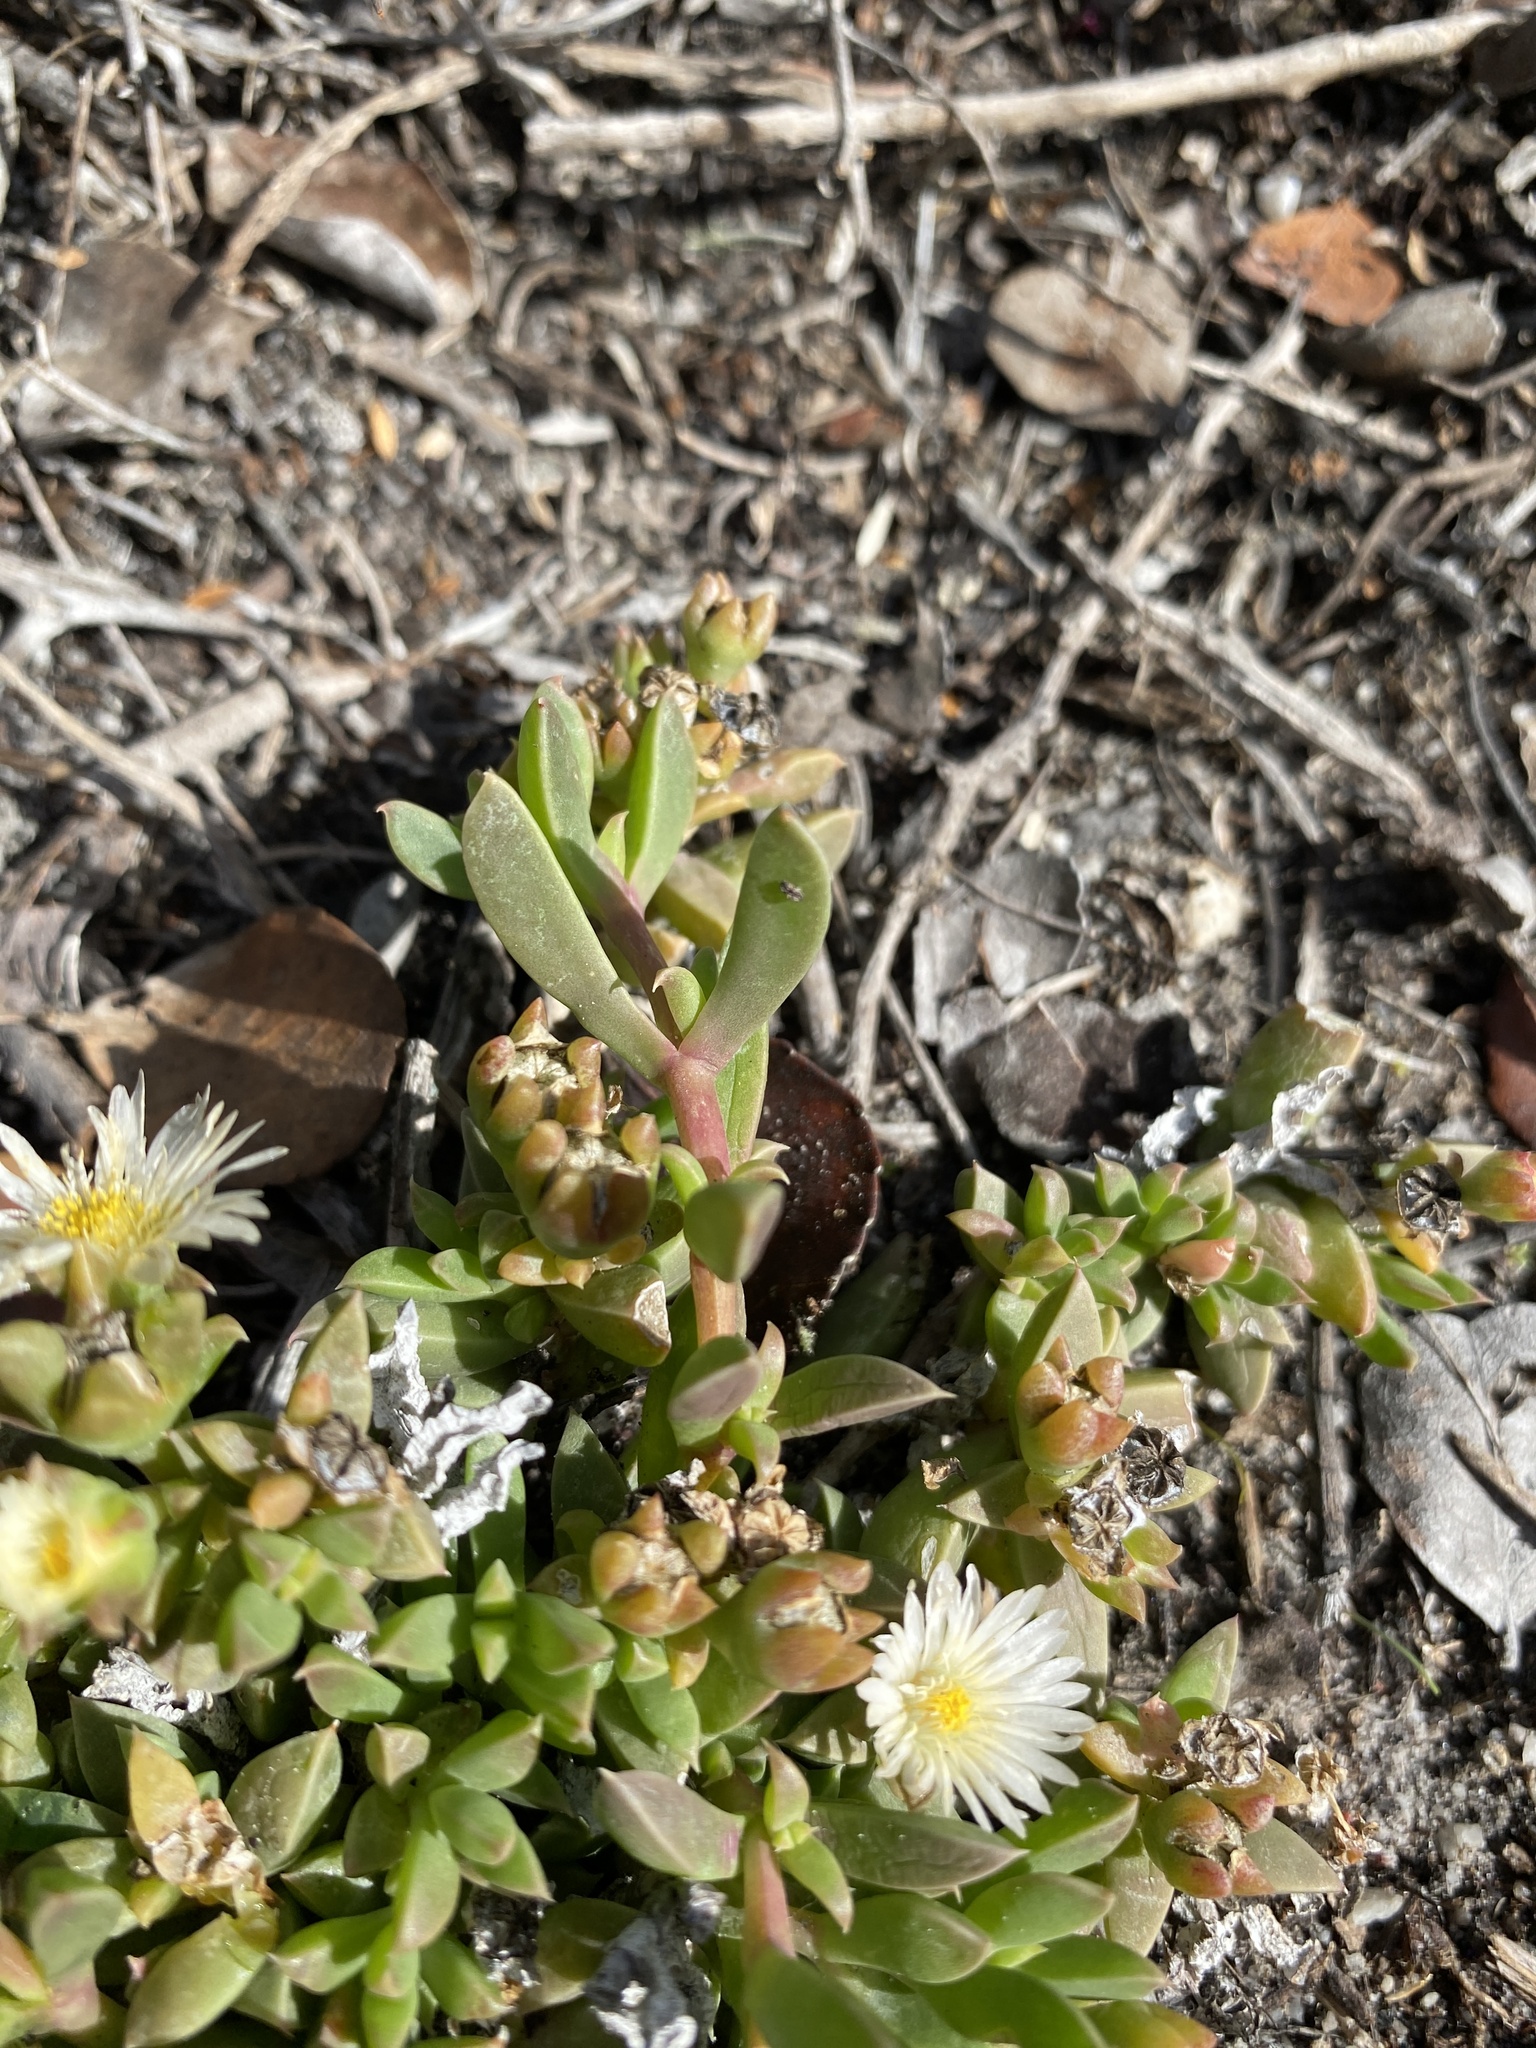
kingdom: Plantae
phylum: Tracheophyta
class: Magnoliopsida
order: Caryophyllales
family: Aizoaceae
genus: Delosperma
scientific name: Delosperma guthriei
